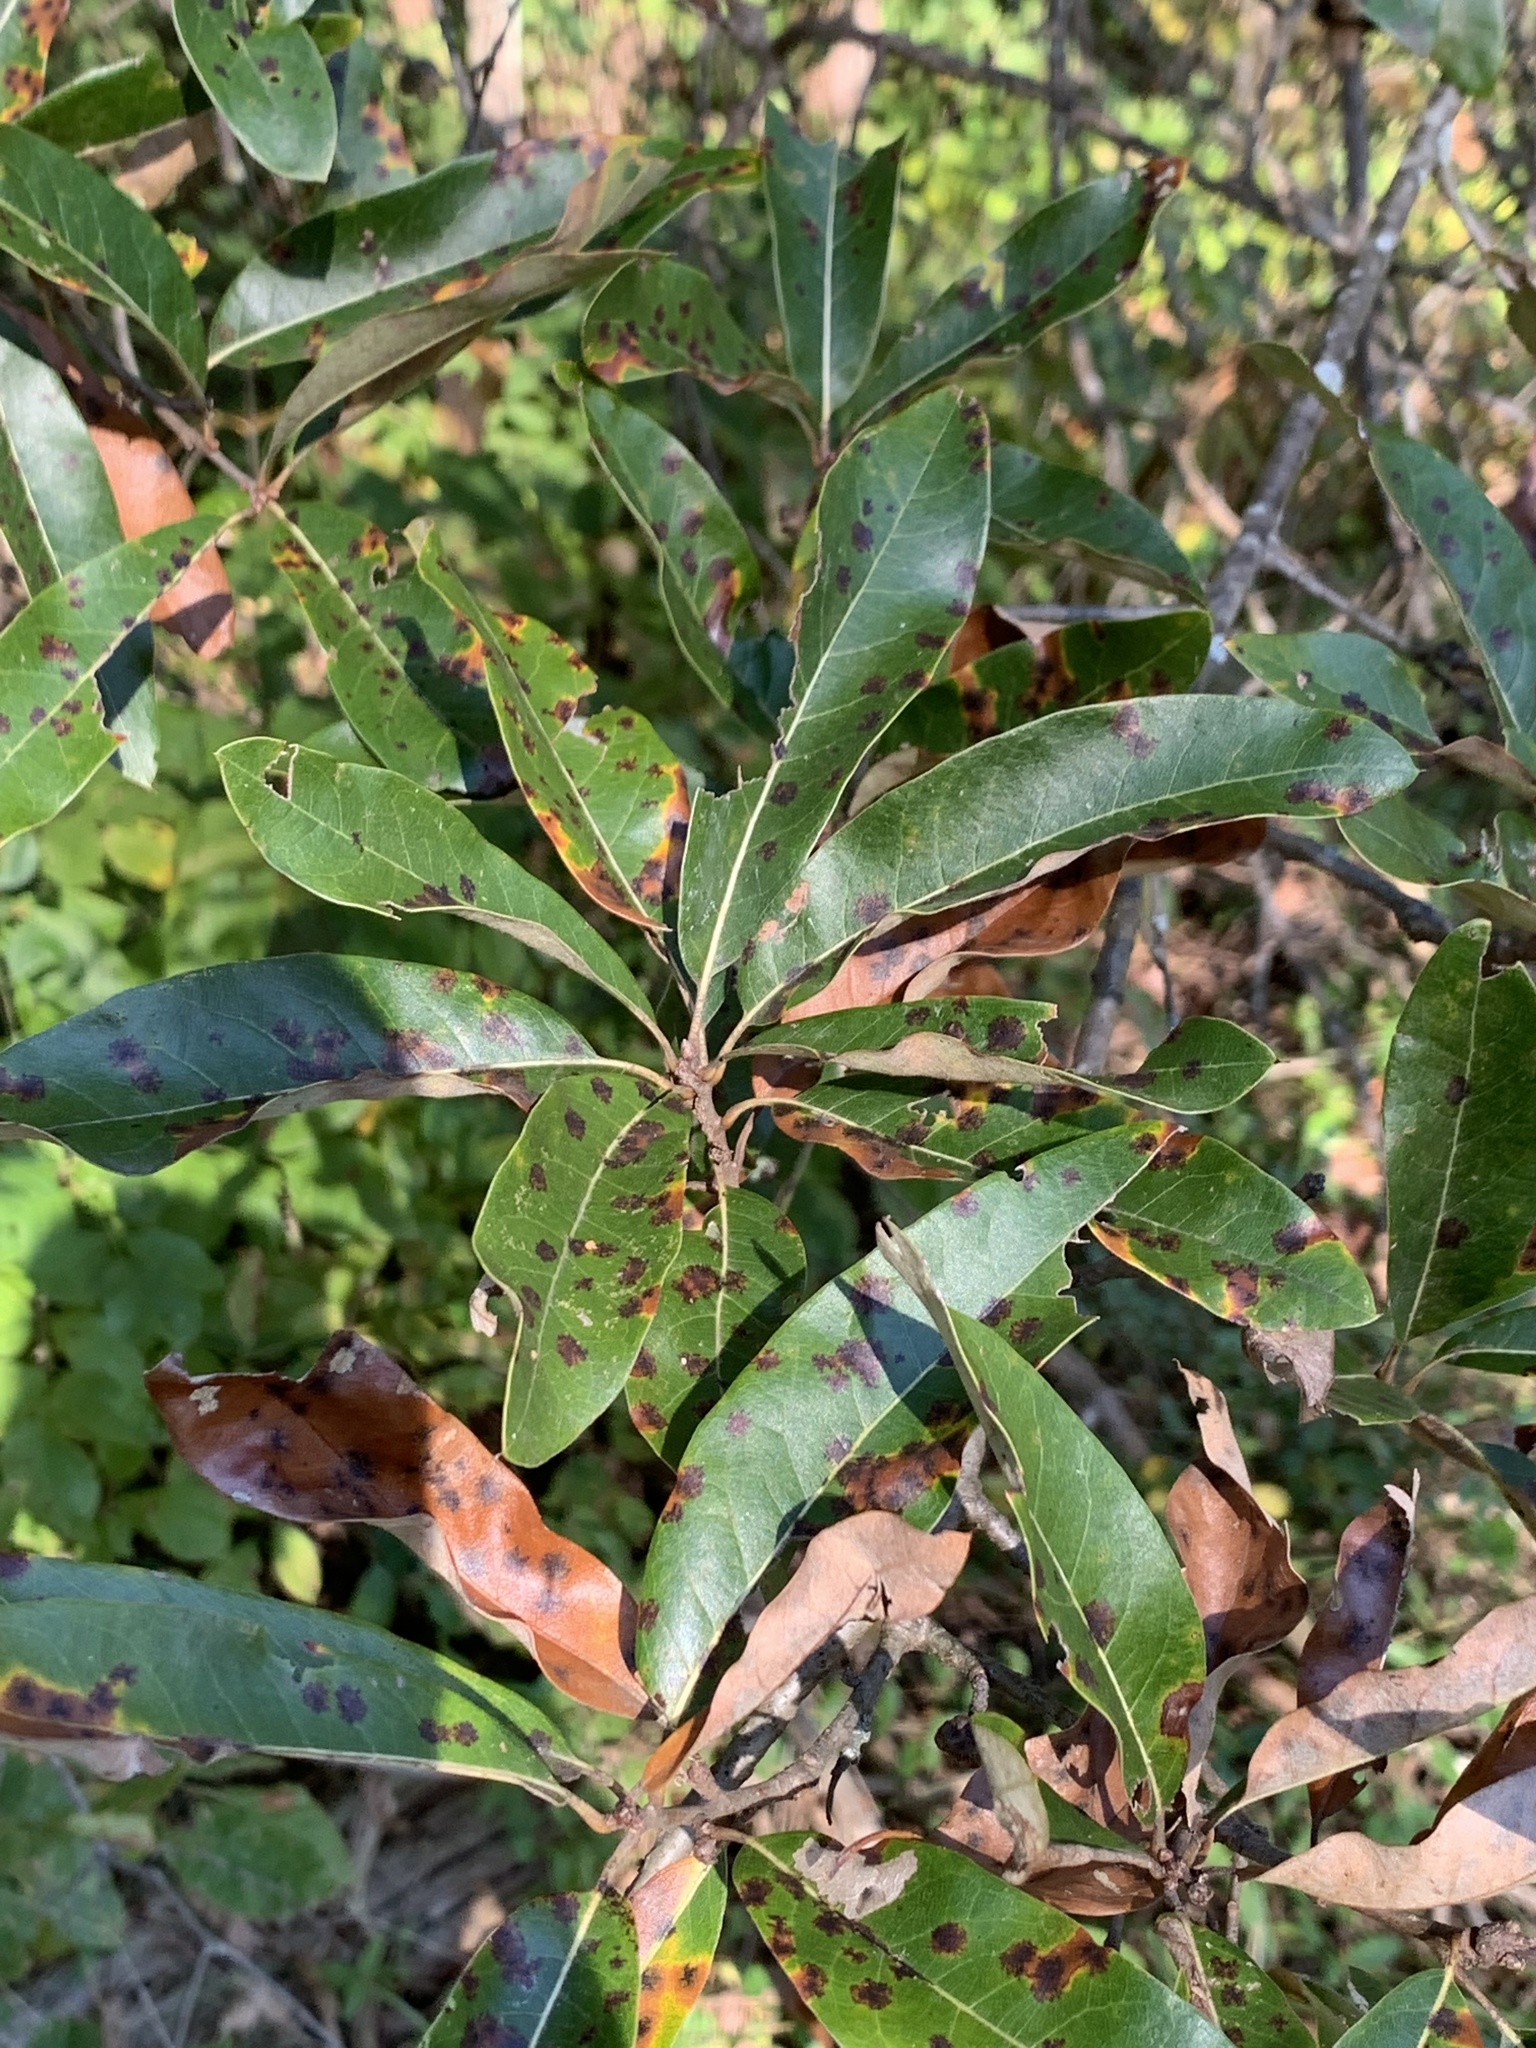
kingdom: Plantae
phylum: Tracheophyta
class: Magnoliopsida
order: Fagales
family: Fagaceae
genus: Quercus
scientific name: Quercus imbricaria
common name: Shingle oak
